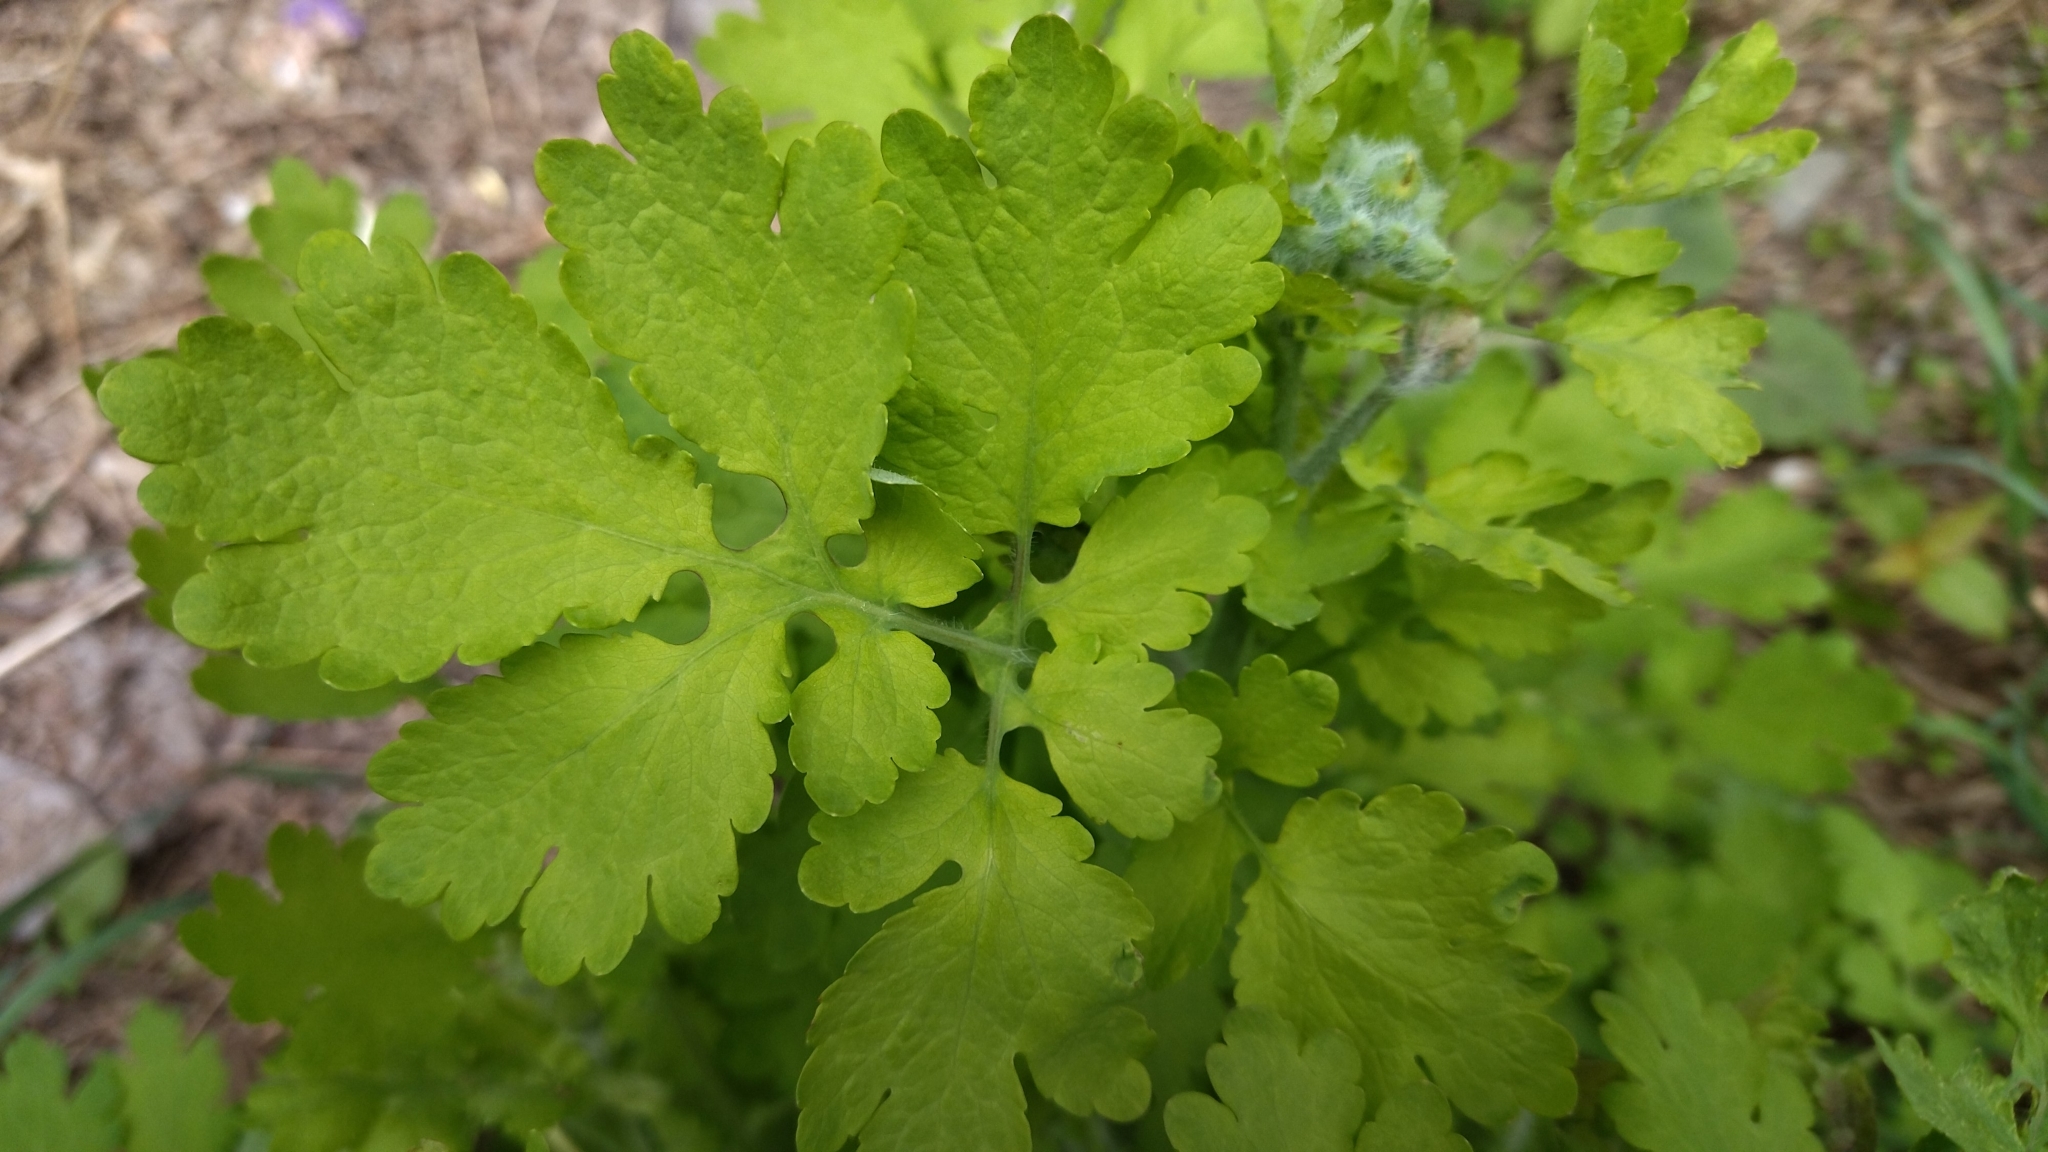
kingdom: Plantae
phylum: Tracheophyta
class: Magnoliopsida
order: Ranunculales
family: Papaveraceae
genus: Chelidonium
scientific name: Chelidonium majus
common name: Greater celandine
